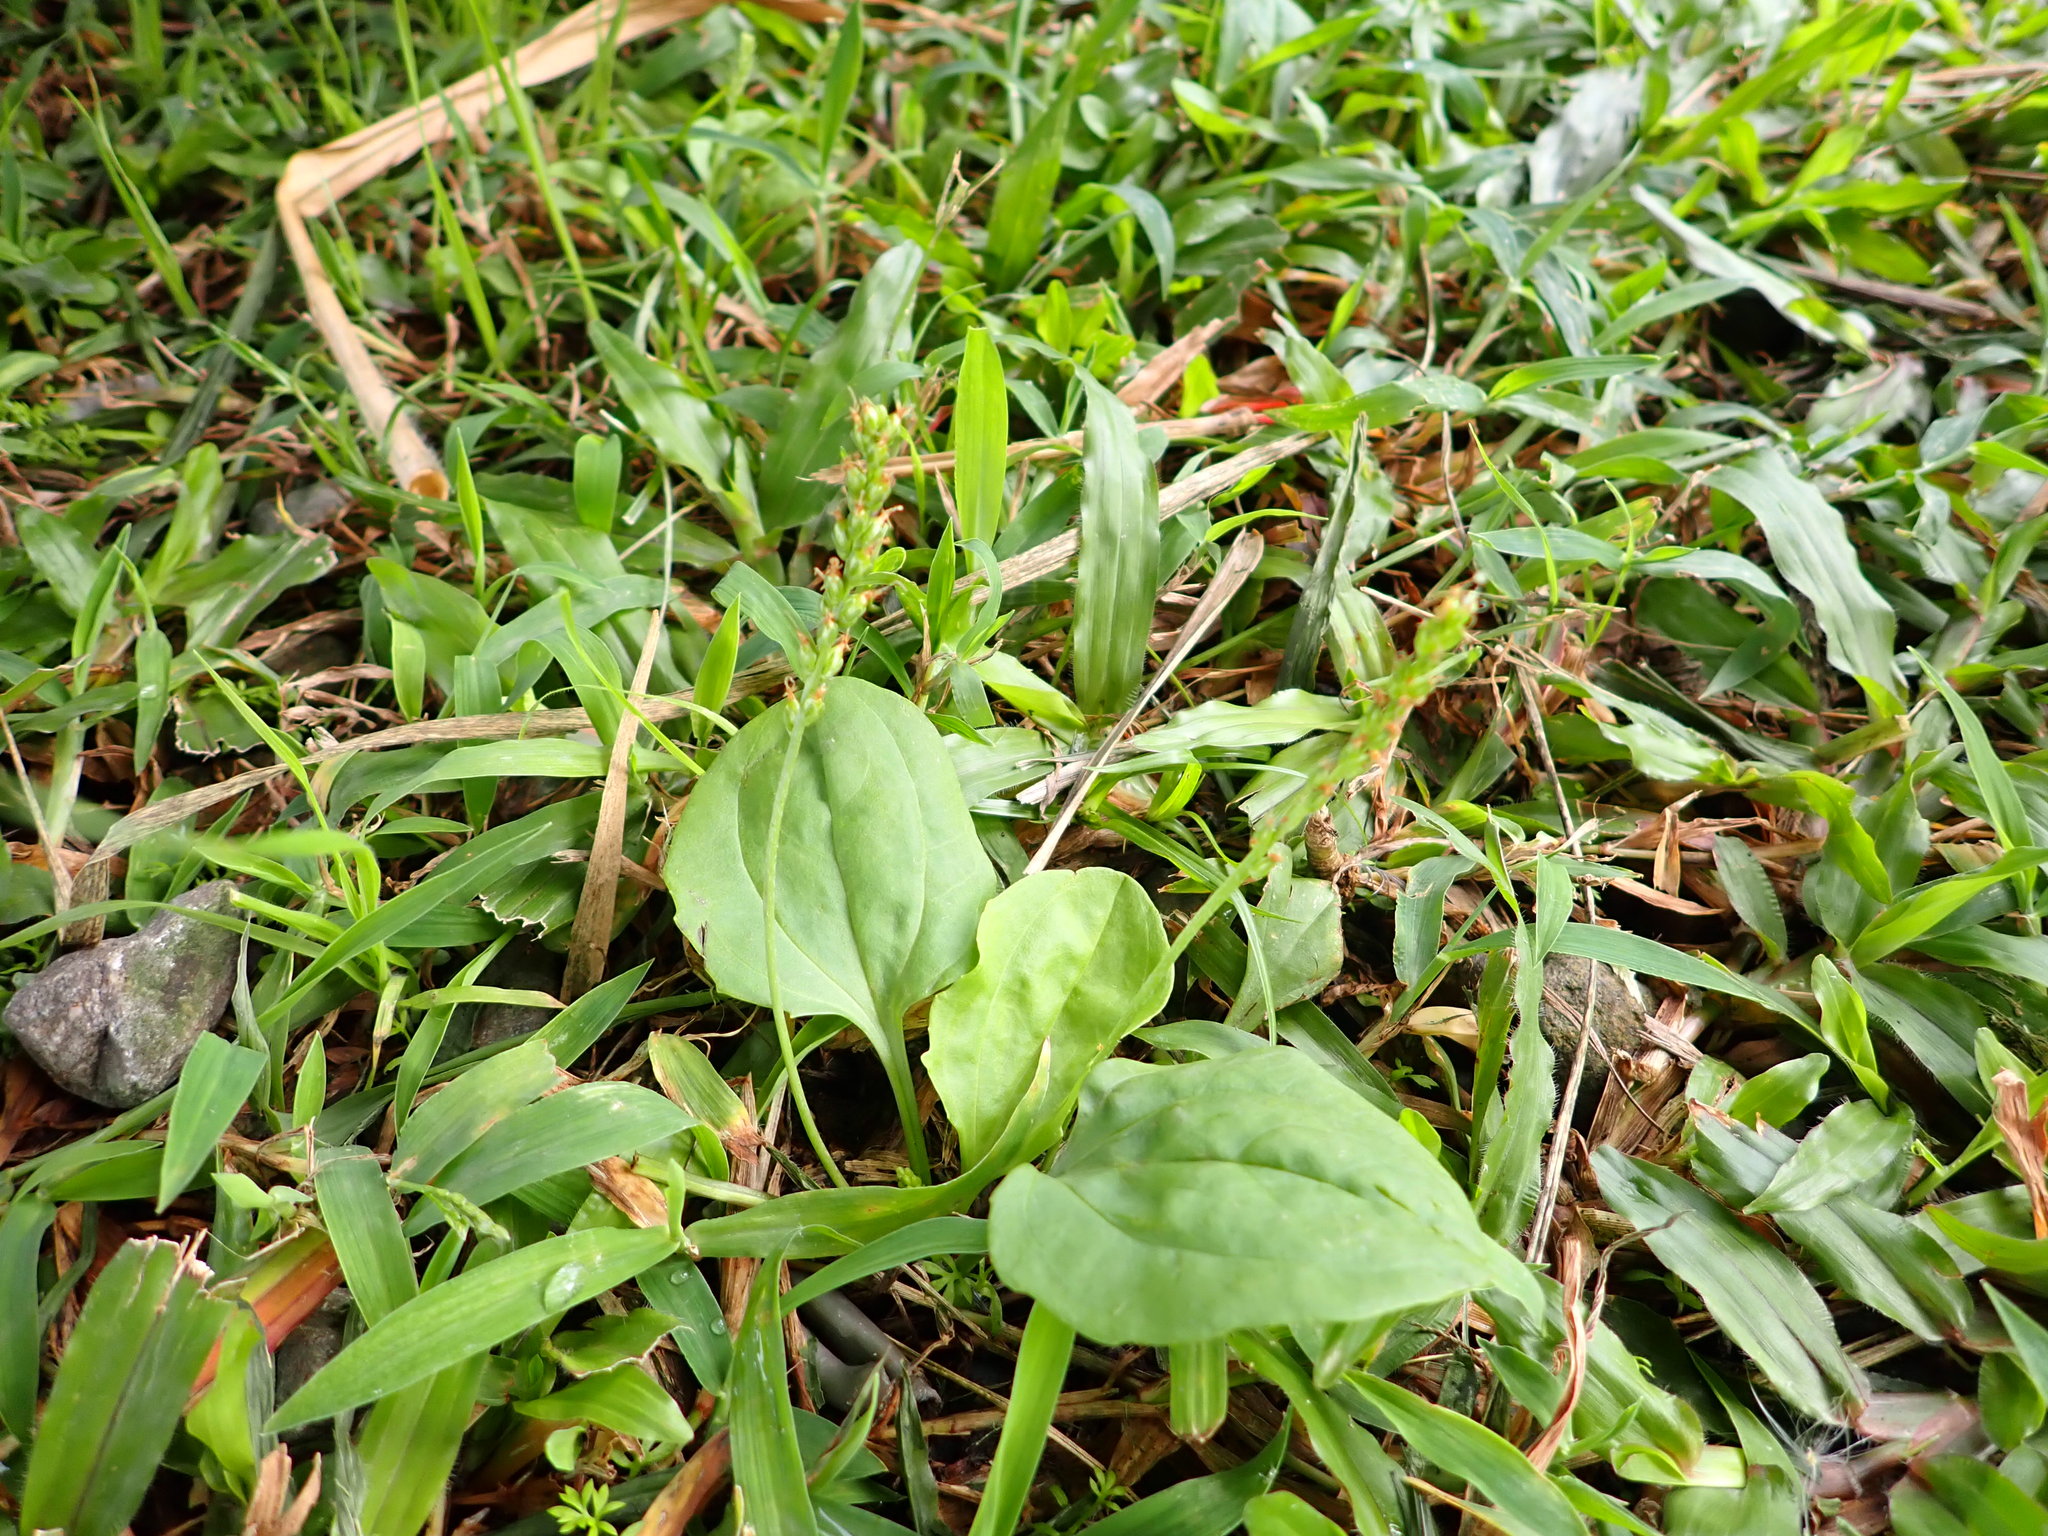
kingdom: Plantae
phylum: Tracheophyta
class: Magnoliopsida
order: Lamiales
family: Plantaginaceae
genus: Plantago
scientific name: Plantago asiatica
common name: Psyllium
